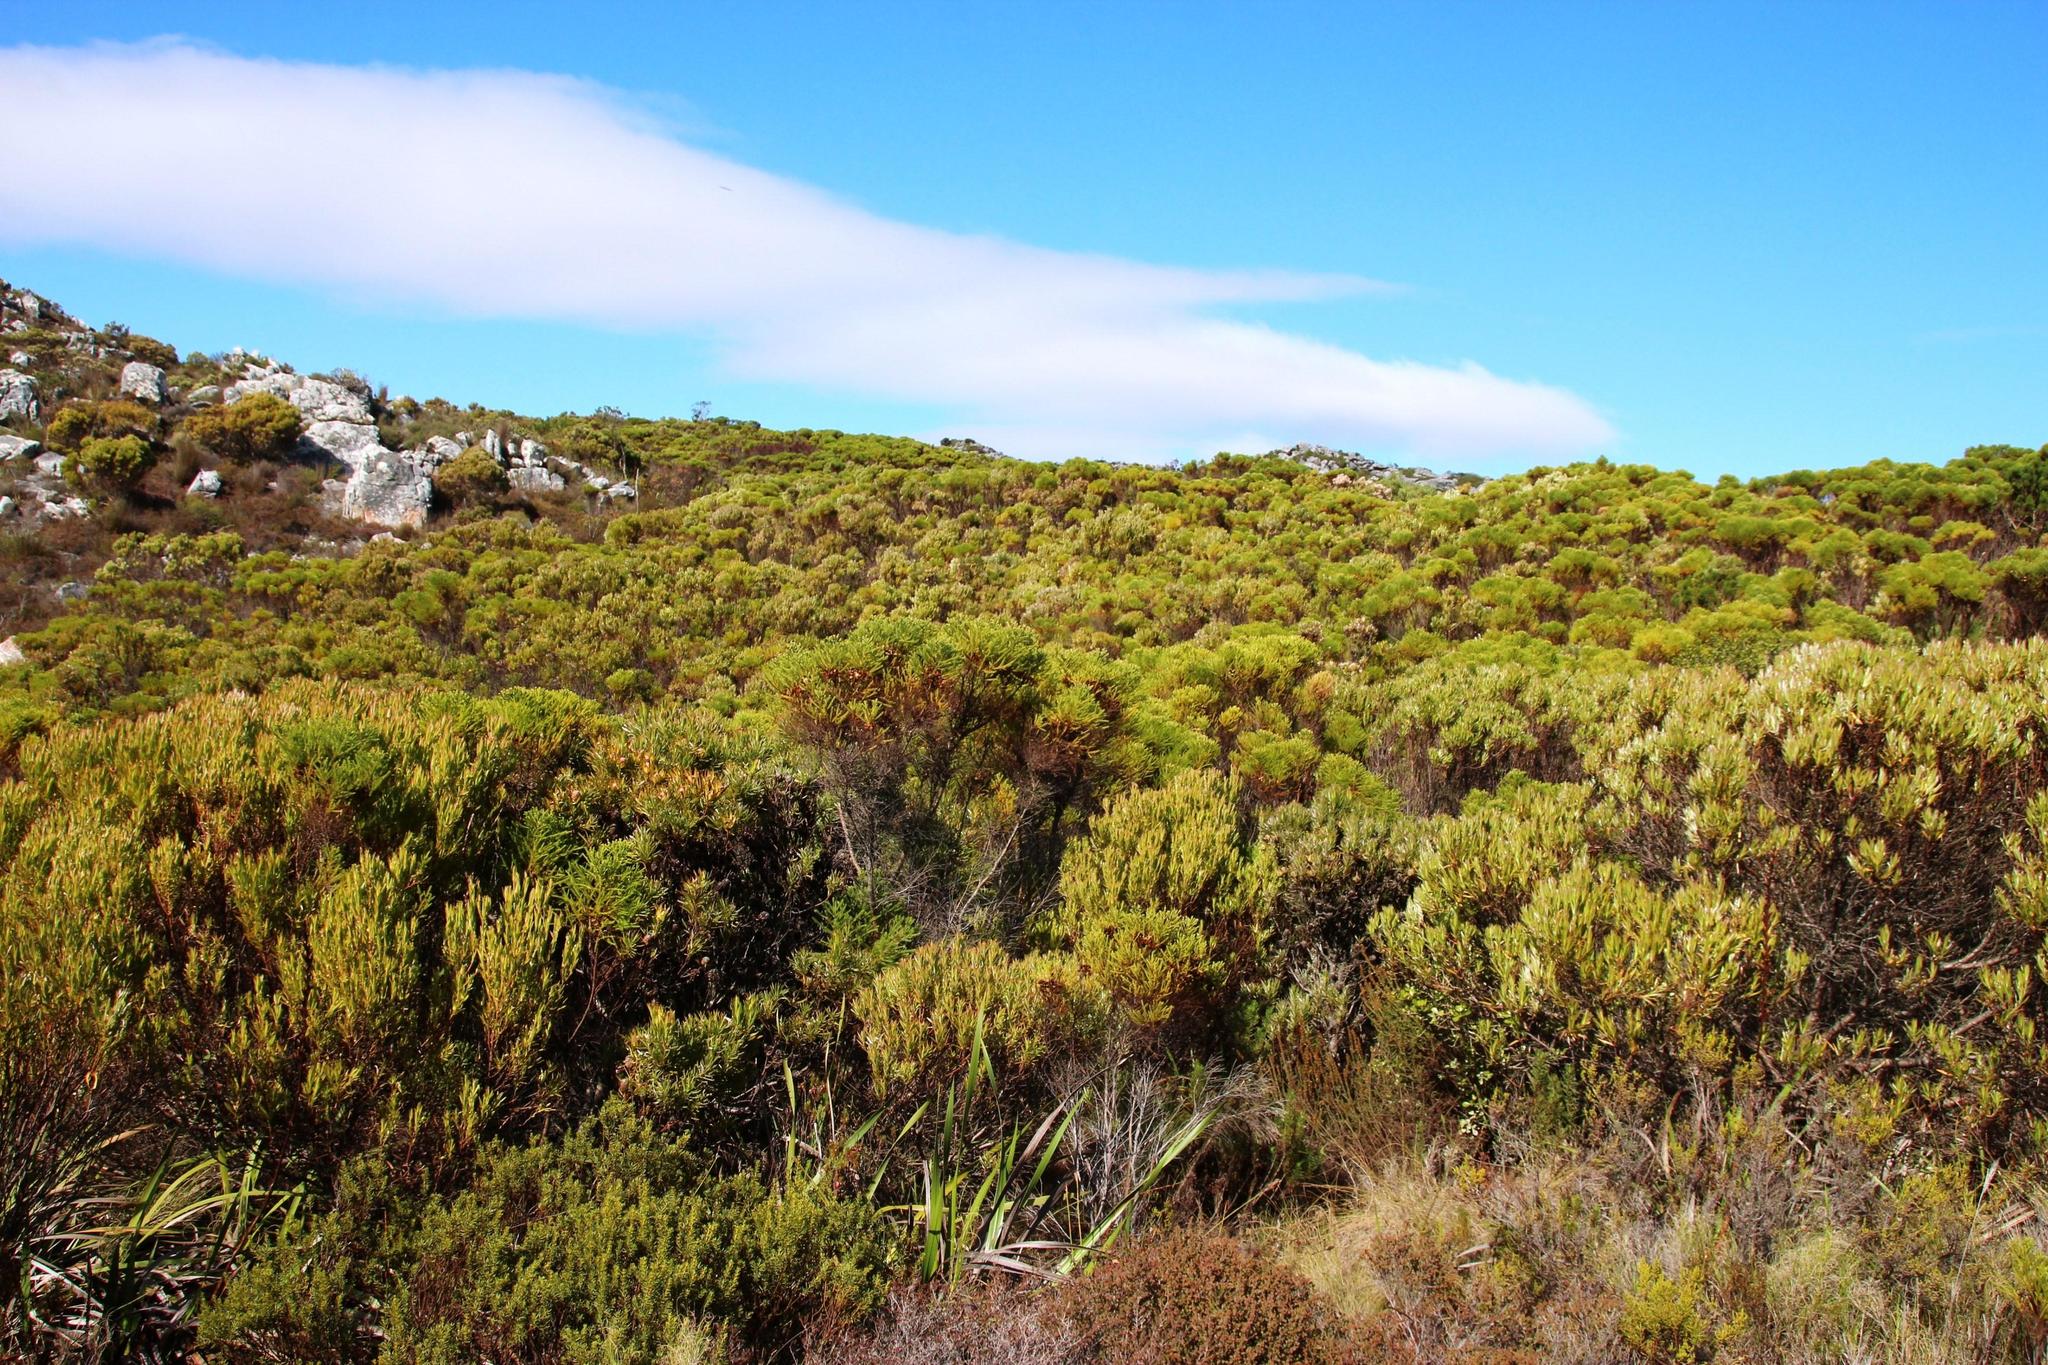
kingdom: Plantae
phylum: Tracheophyta
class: Magnoliopsida
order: Proteales
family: Proteaceae
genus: Leucadendron
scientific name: Leucadendron xanthoconus
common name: Sickle-leaf conebush
